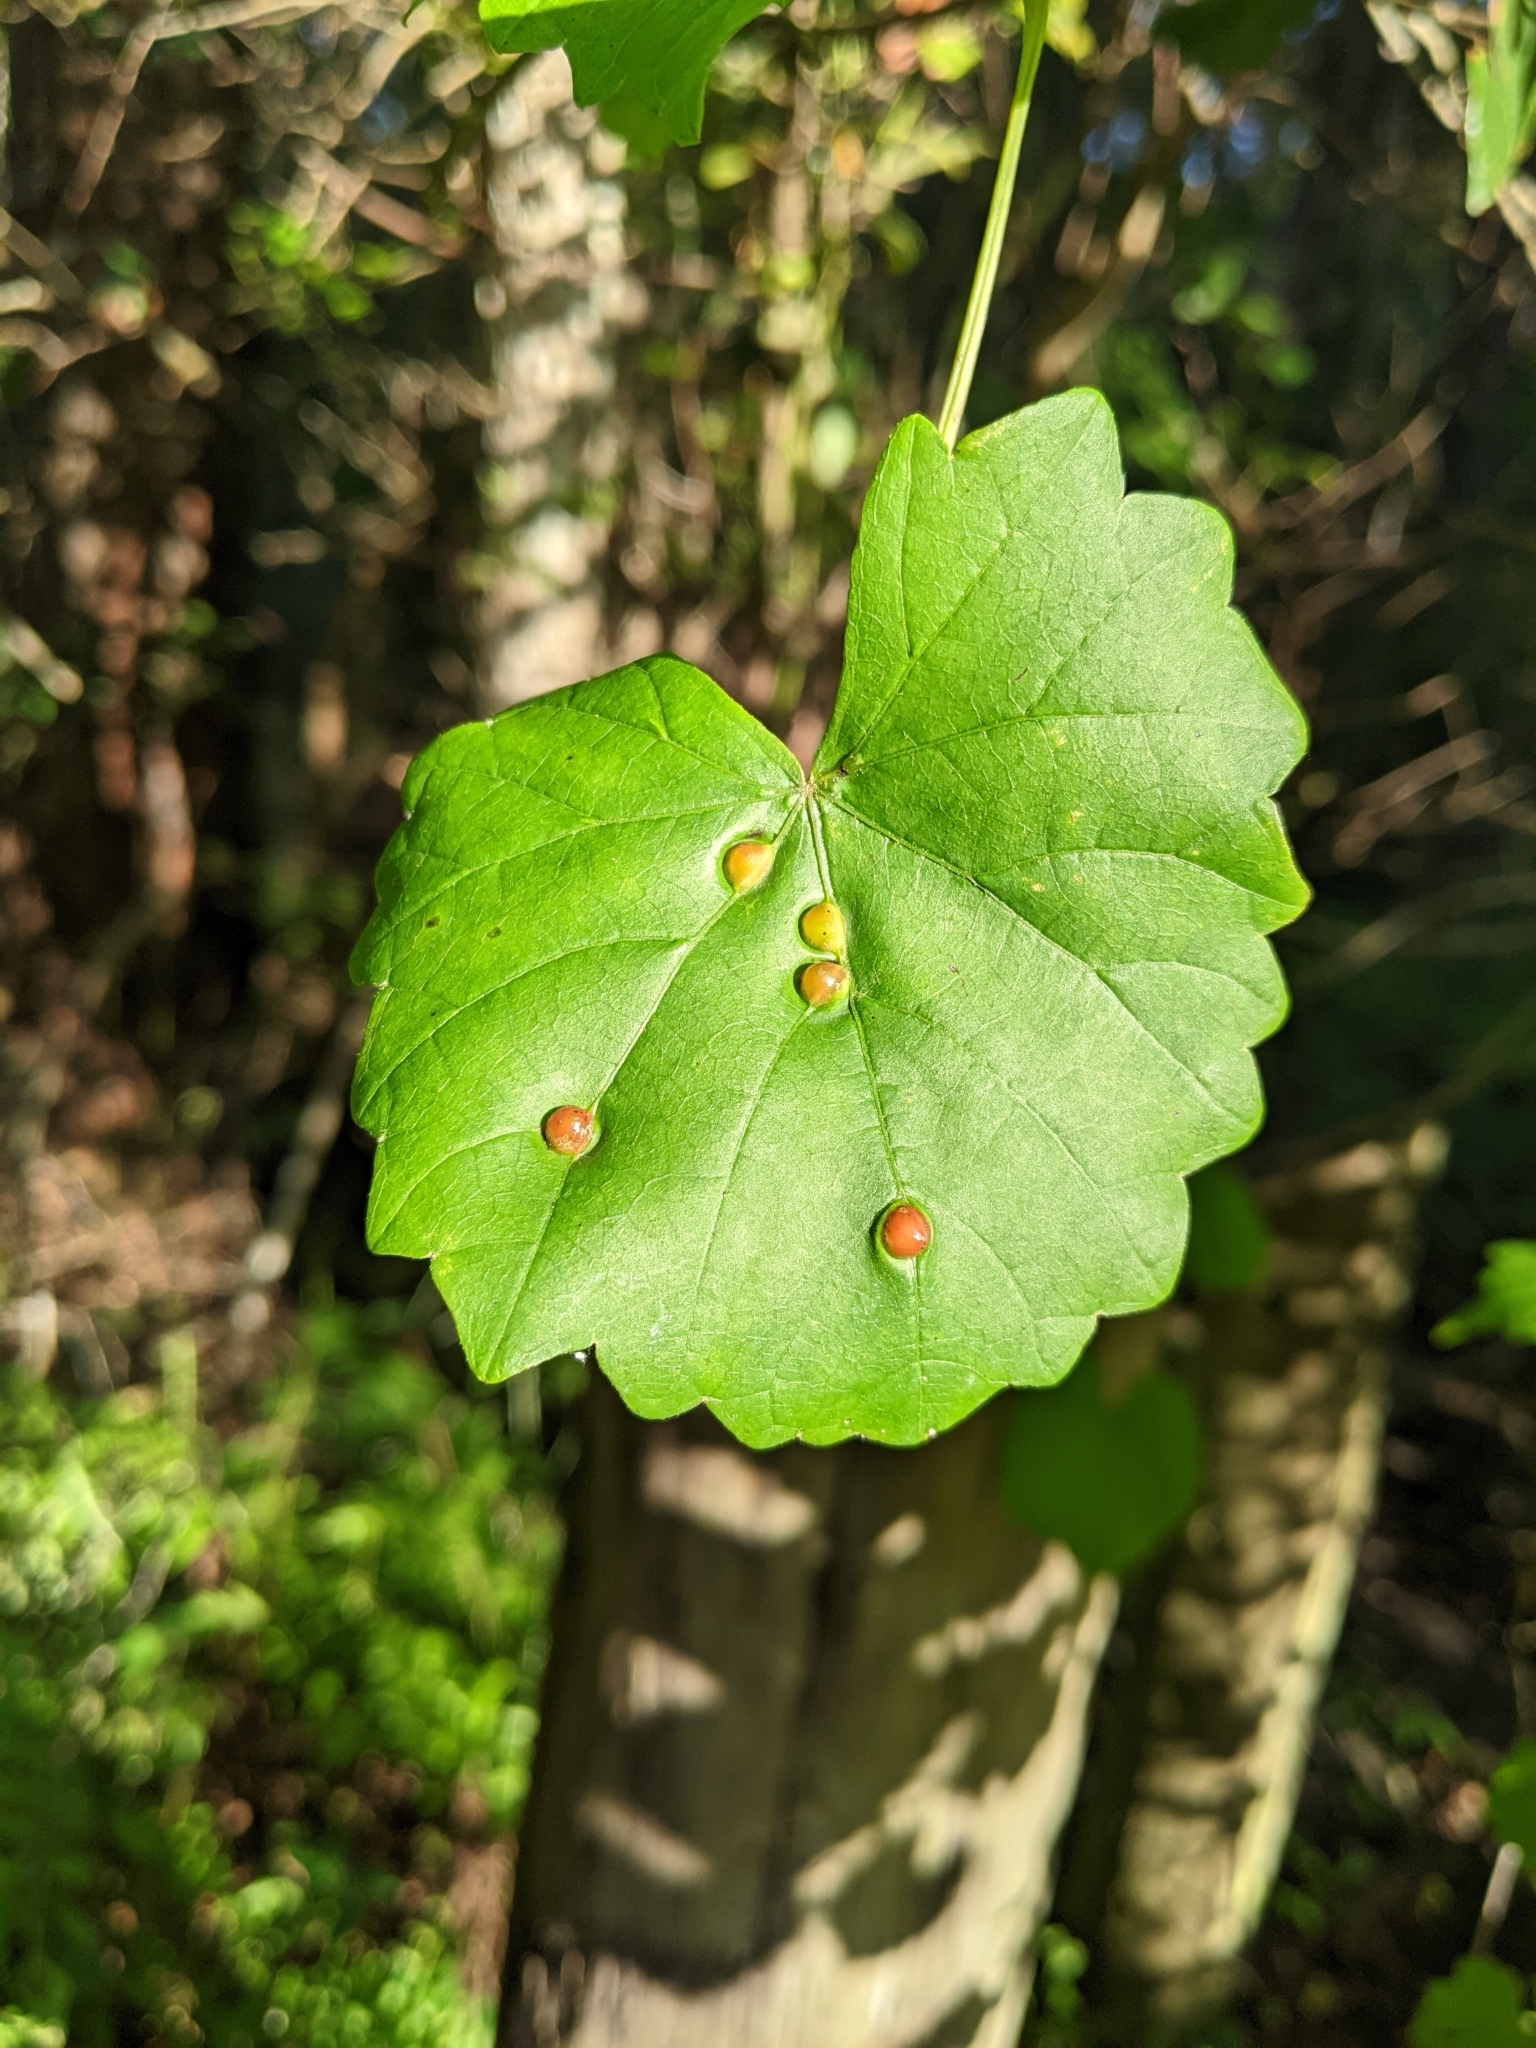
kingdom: Animalia
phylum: Arthropoda
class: Insecta
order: Diptera
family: Cecidomyiidae
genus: Vitisiella
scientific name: Vitisiella brevicauda
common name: Grape tumid gallmaker midge
